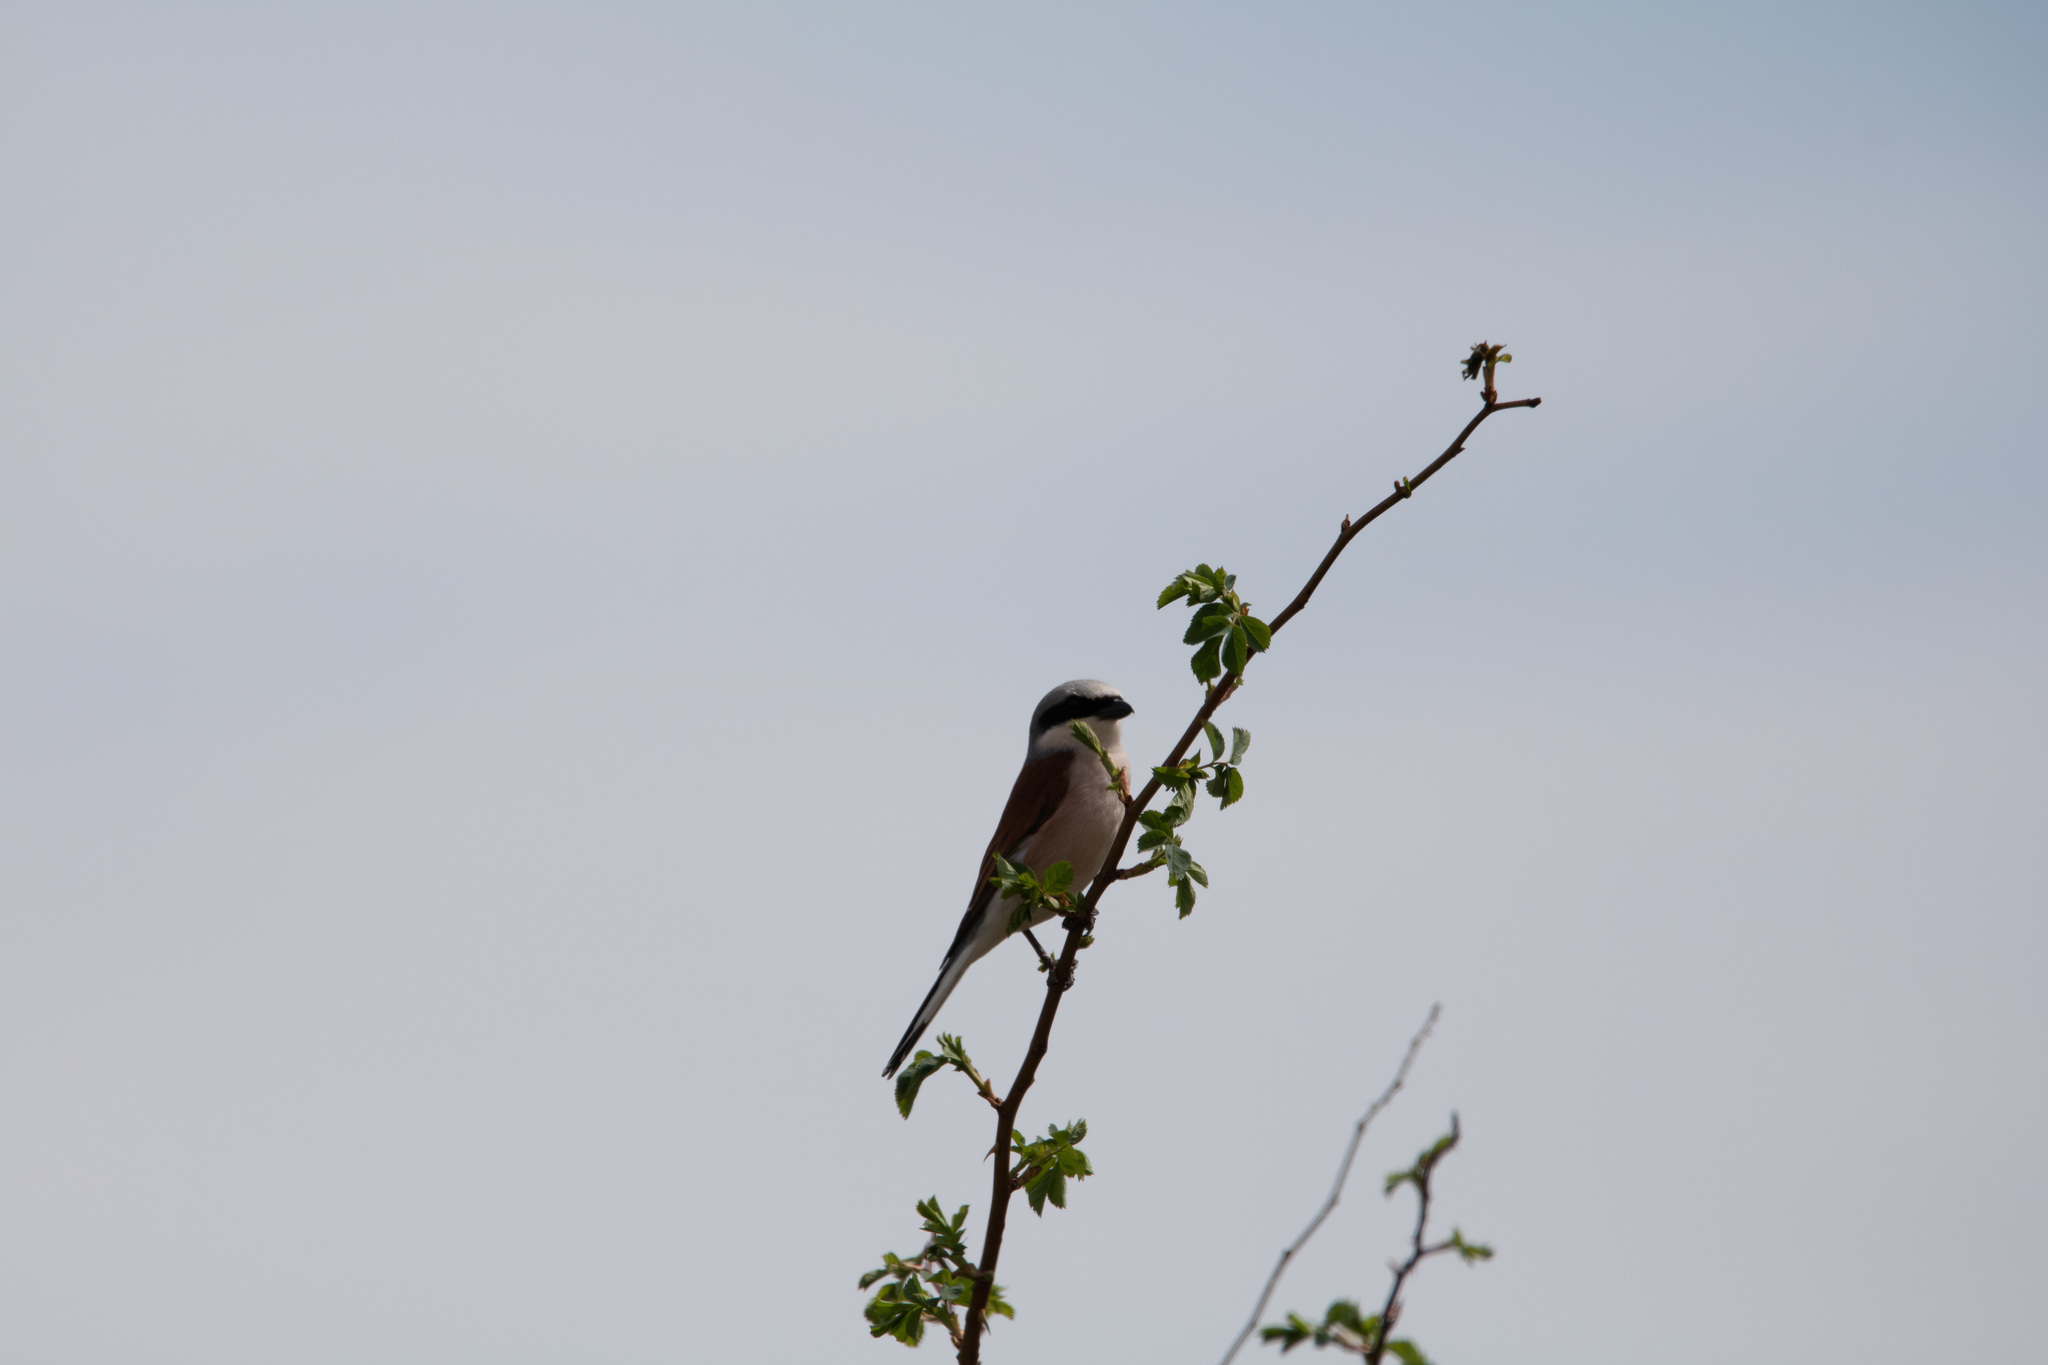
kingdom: Animalia
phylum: Chordata
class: Aves
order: Passeriformes
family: Laniidae
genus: Lanius
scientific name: Lanius collurio
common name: Red-backed shrike
